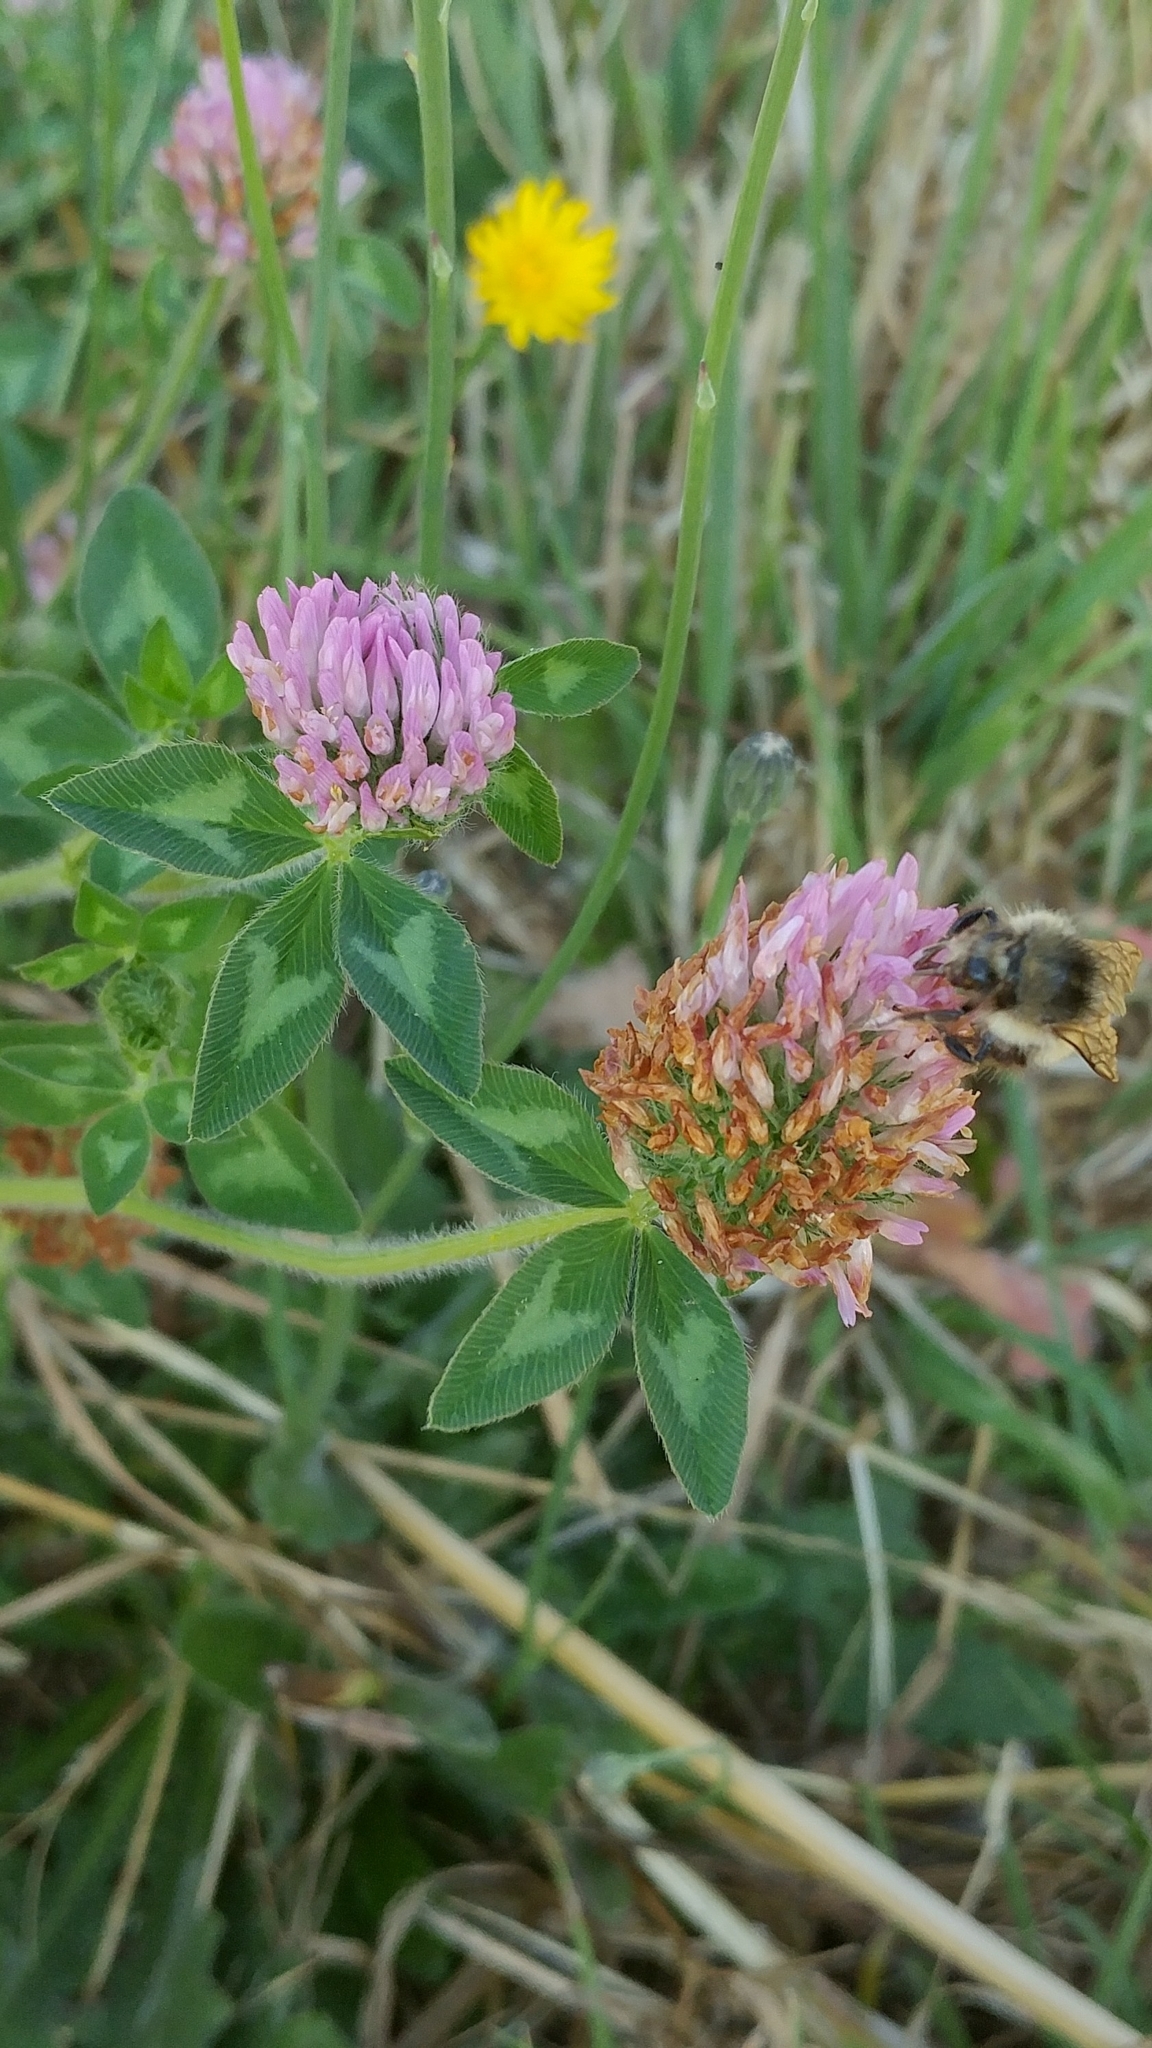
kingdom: Plantae
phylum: Tracheophyta
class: Magnoliopsida
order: Fabales
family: Fabaceae
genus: Trifolium
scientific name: Trifolium pratense
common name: Red clover
